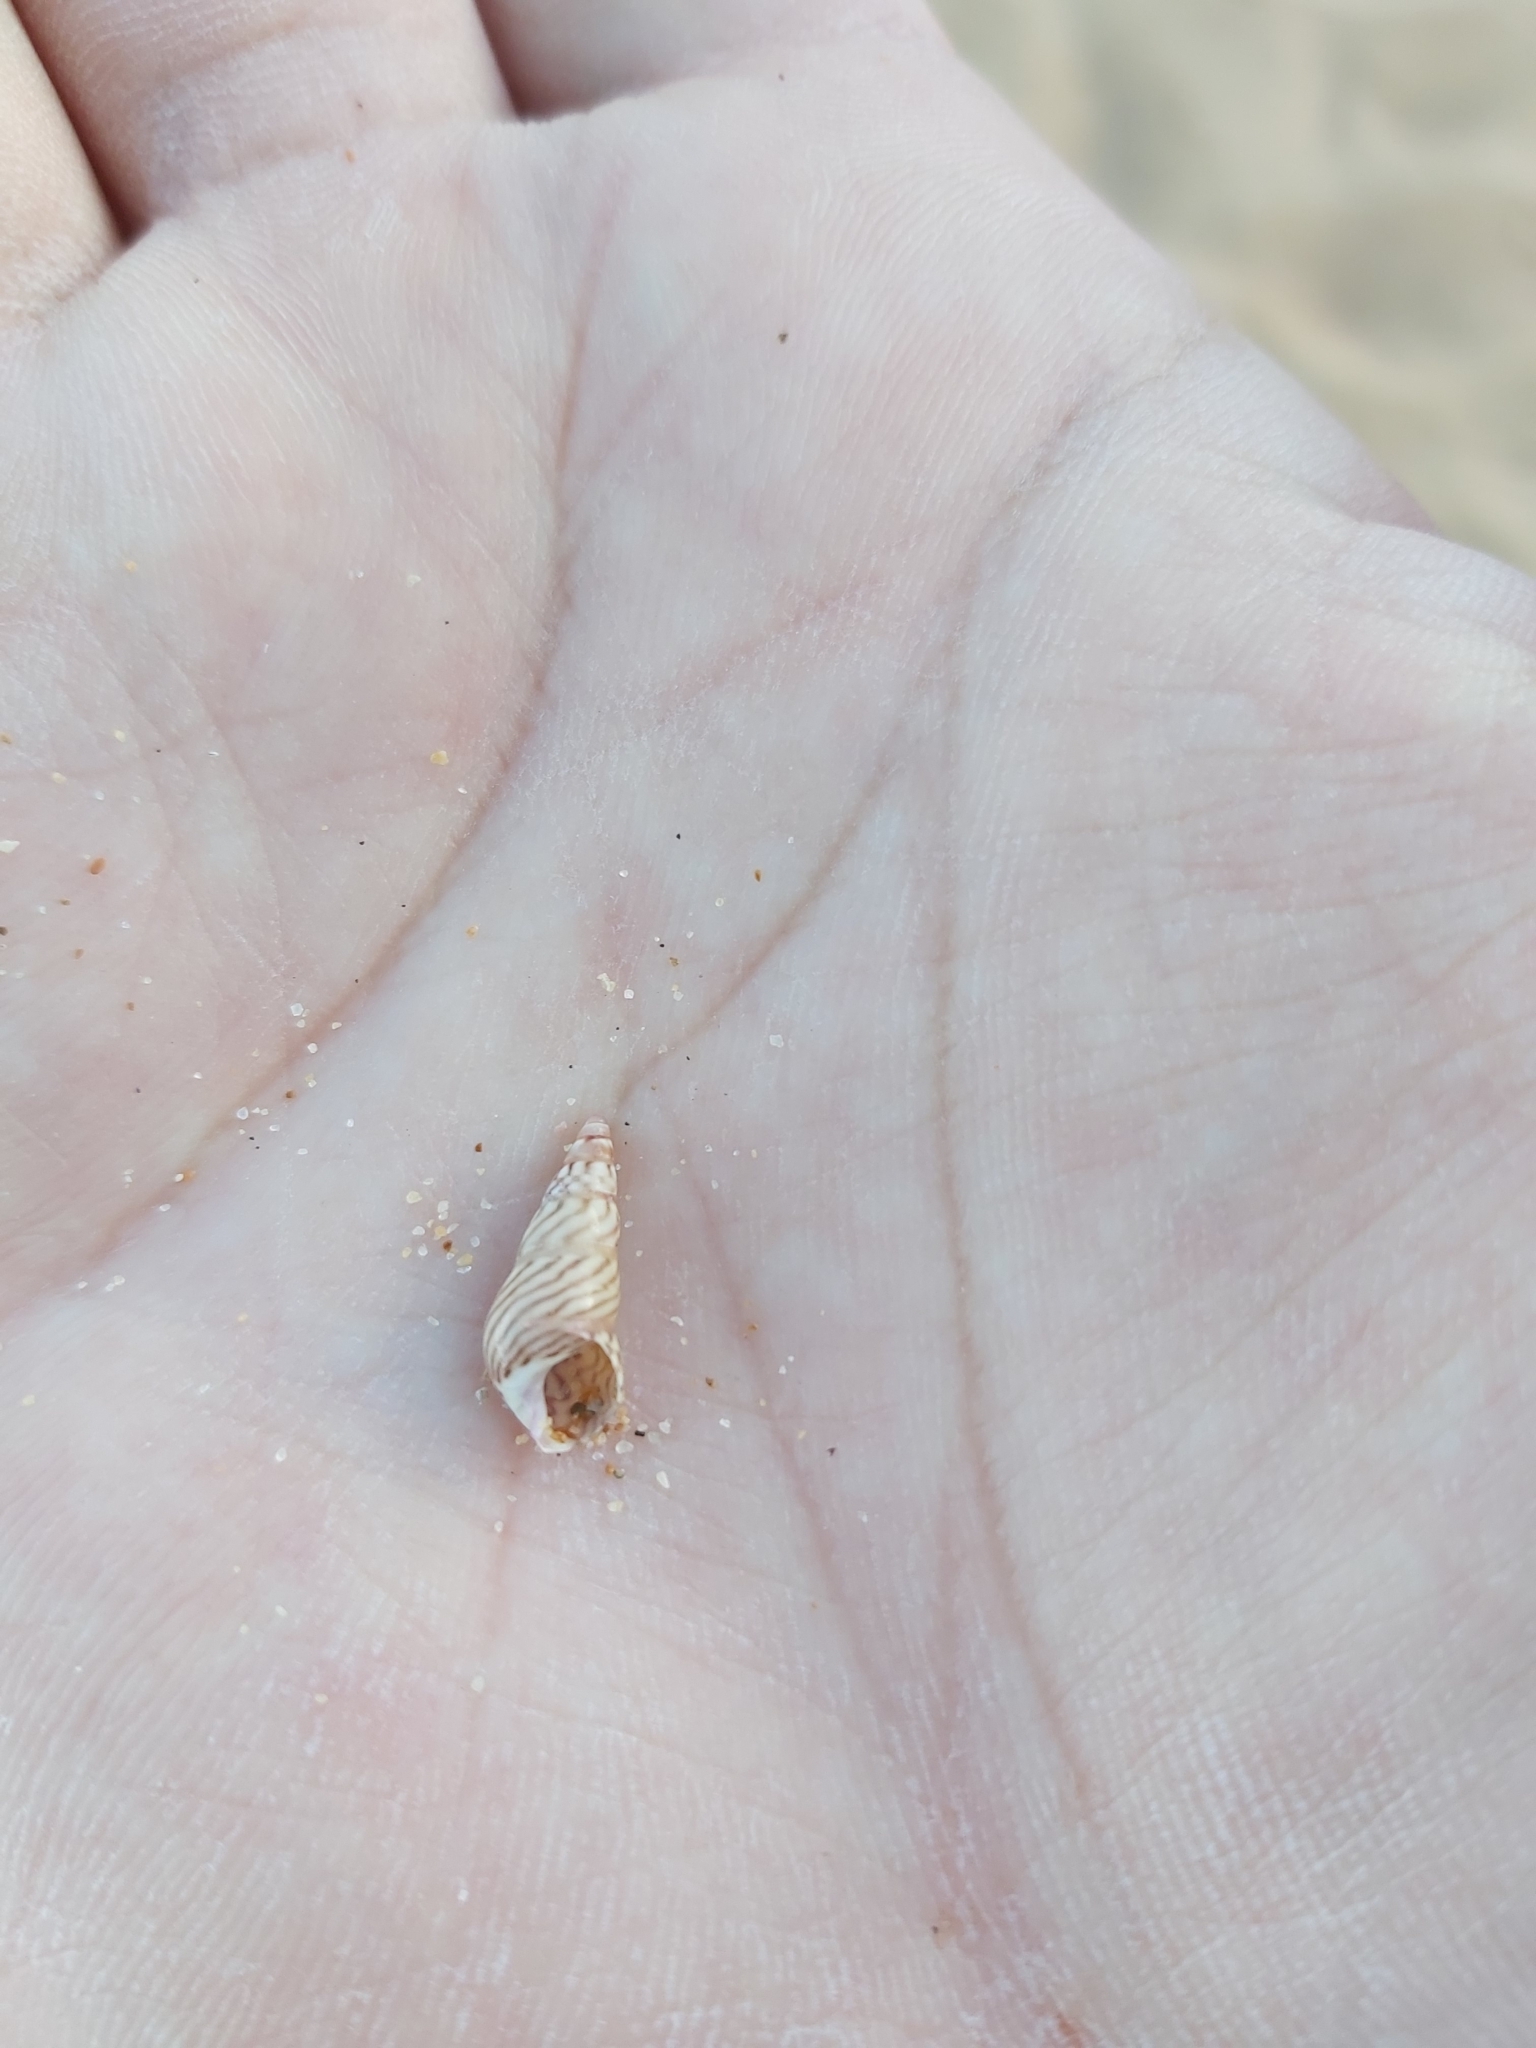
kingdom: Animalia
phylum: Mollusca
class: Gastropoda
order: Trochida
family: Trochidae
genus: Bankivia
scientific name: Bankivia fasciata
